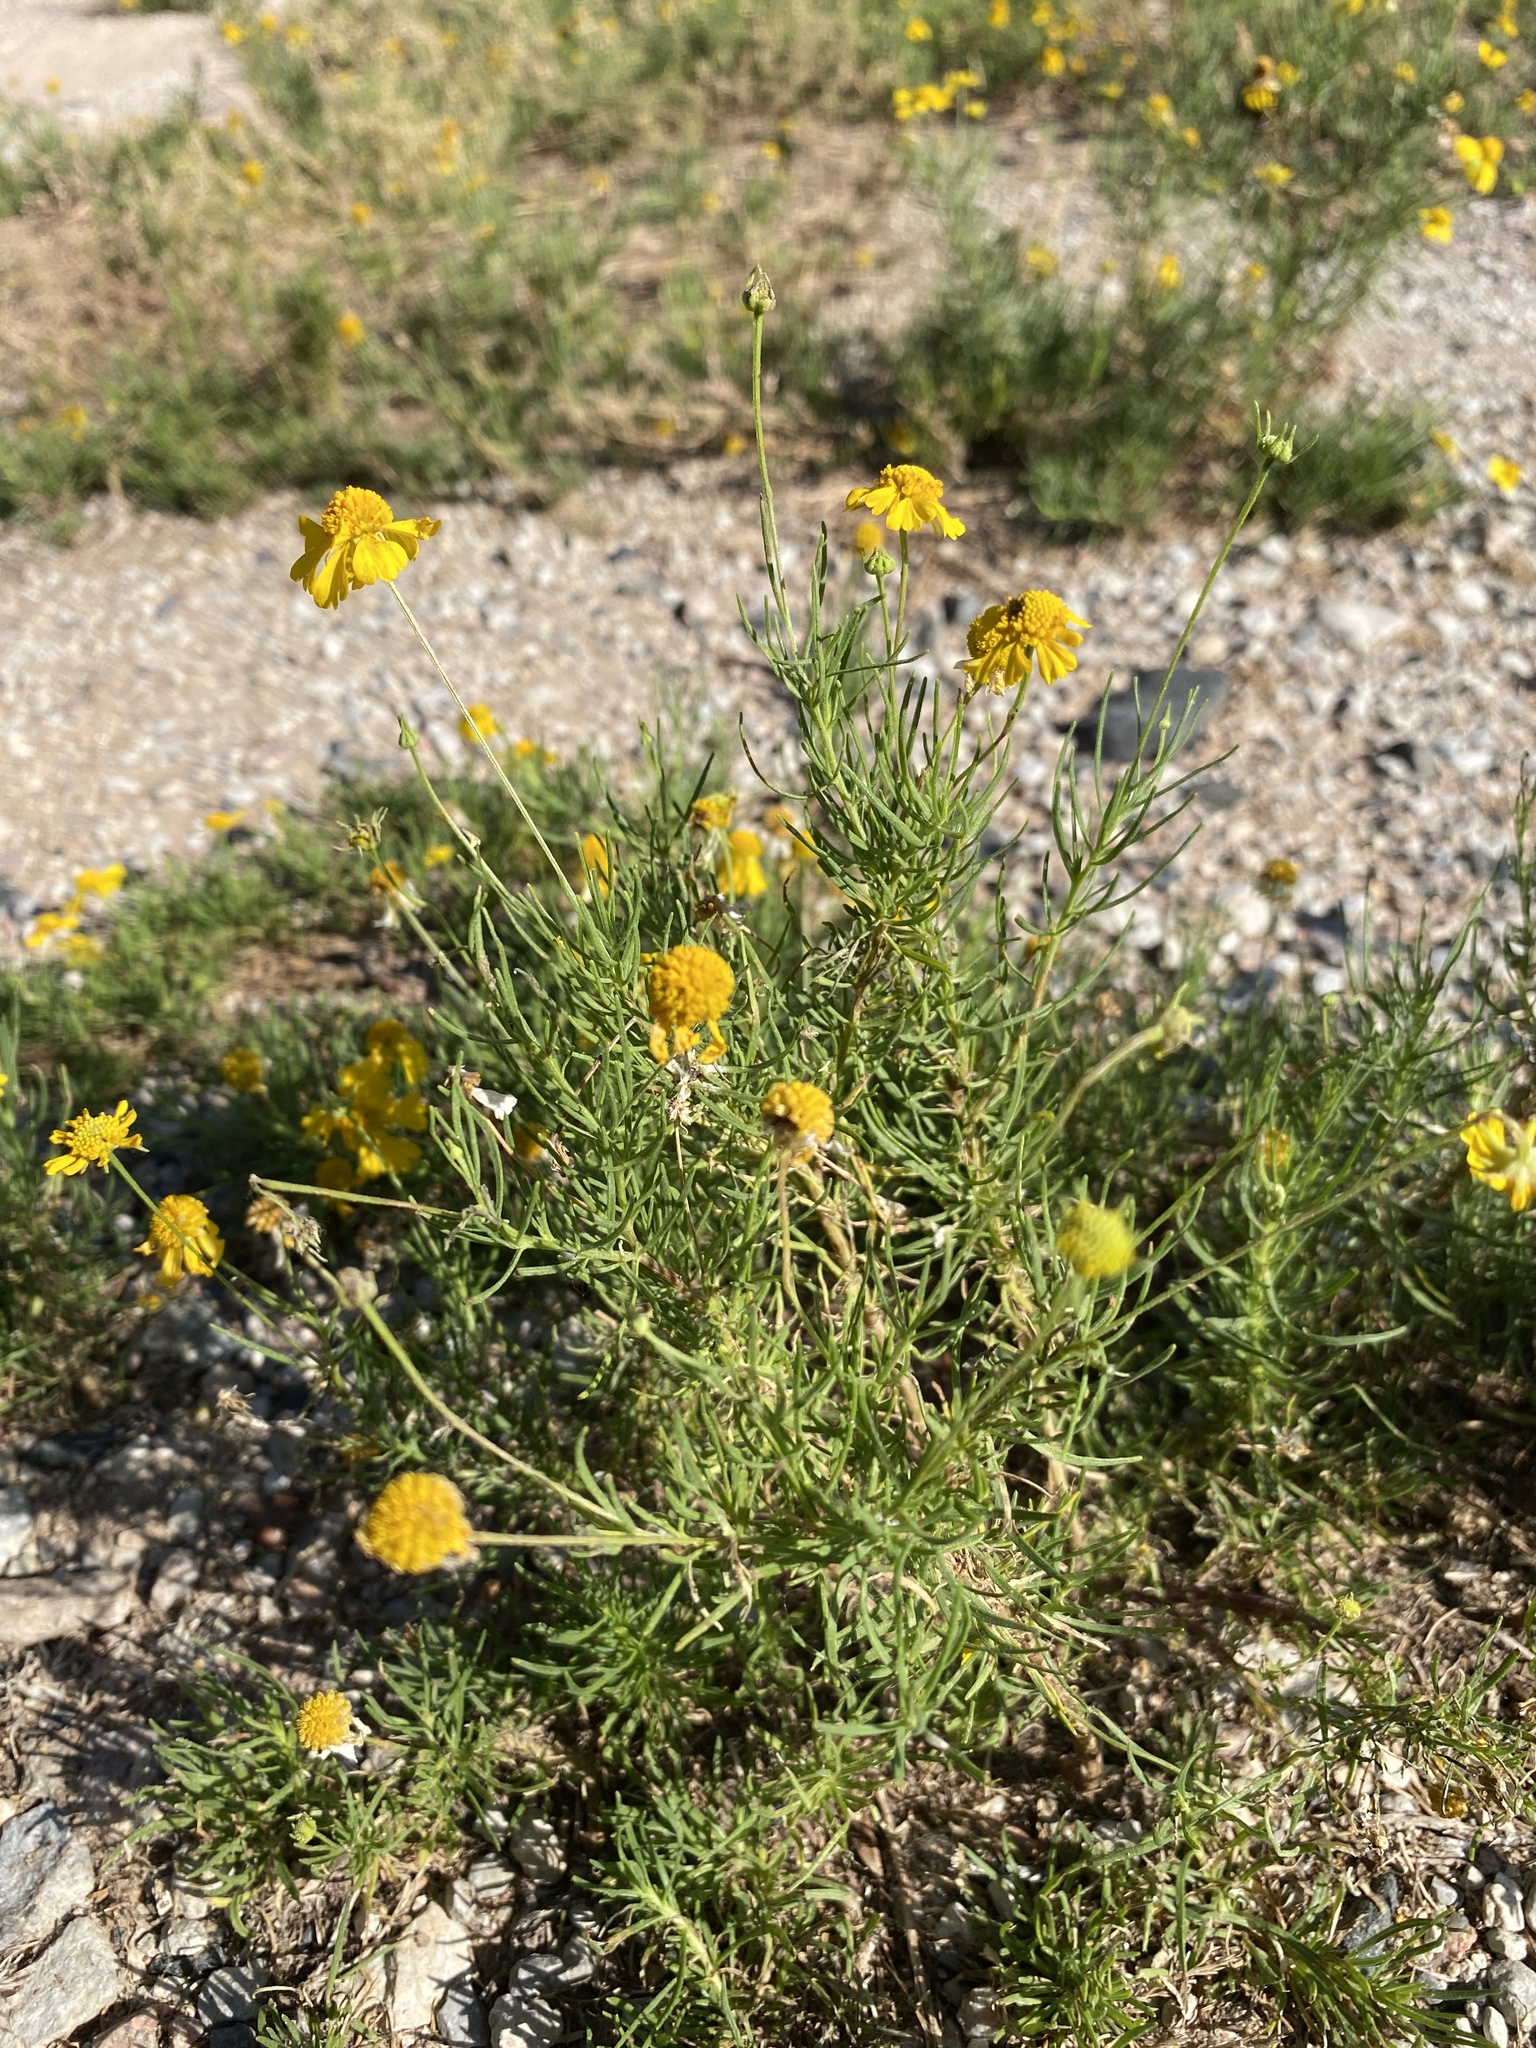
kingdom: Plantae
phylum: Tracheophyta
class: Magnoliopsida
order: Asterales
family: Asteraceae
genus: Helenium
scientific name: Helenium amarum
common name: Bitter sneezeweed
